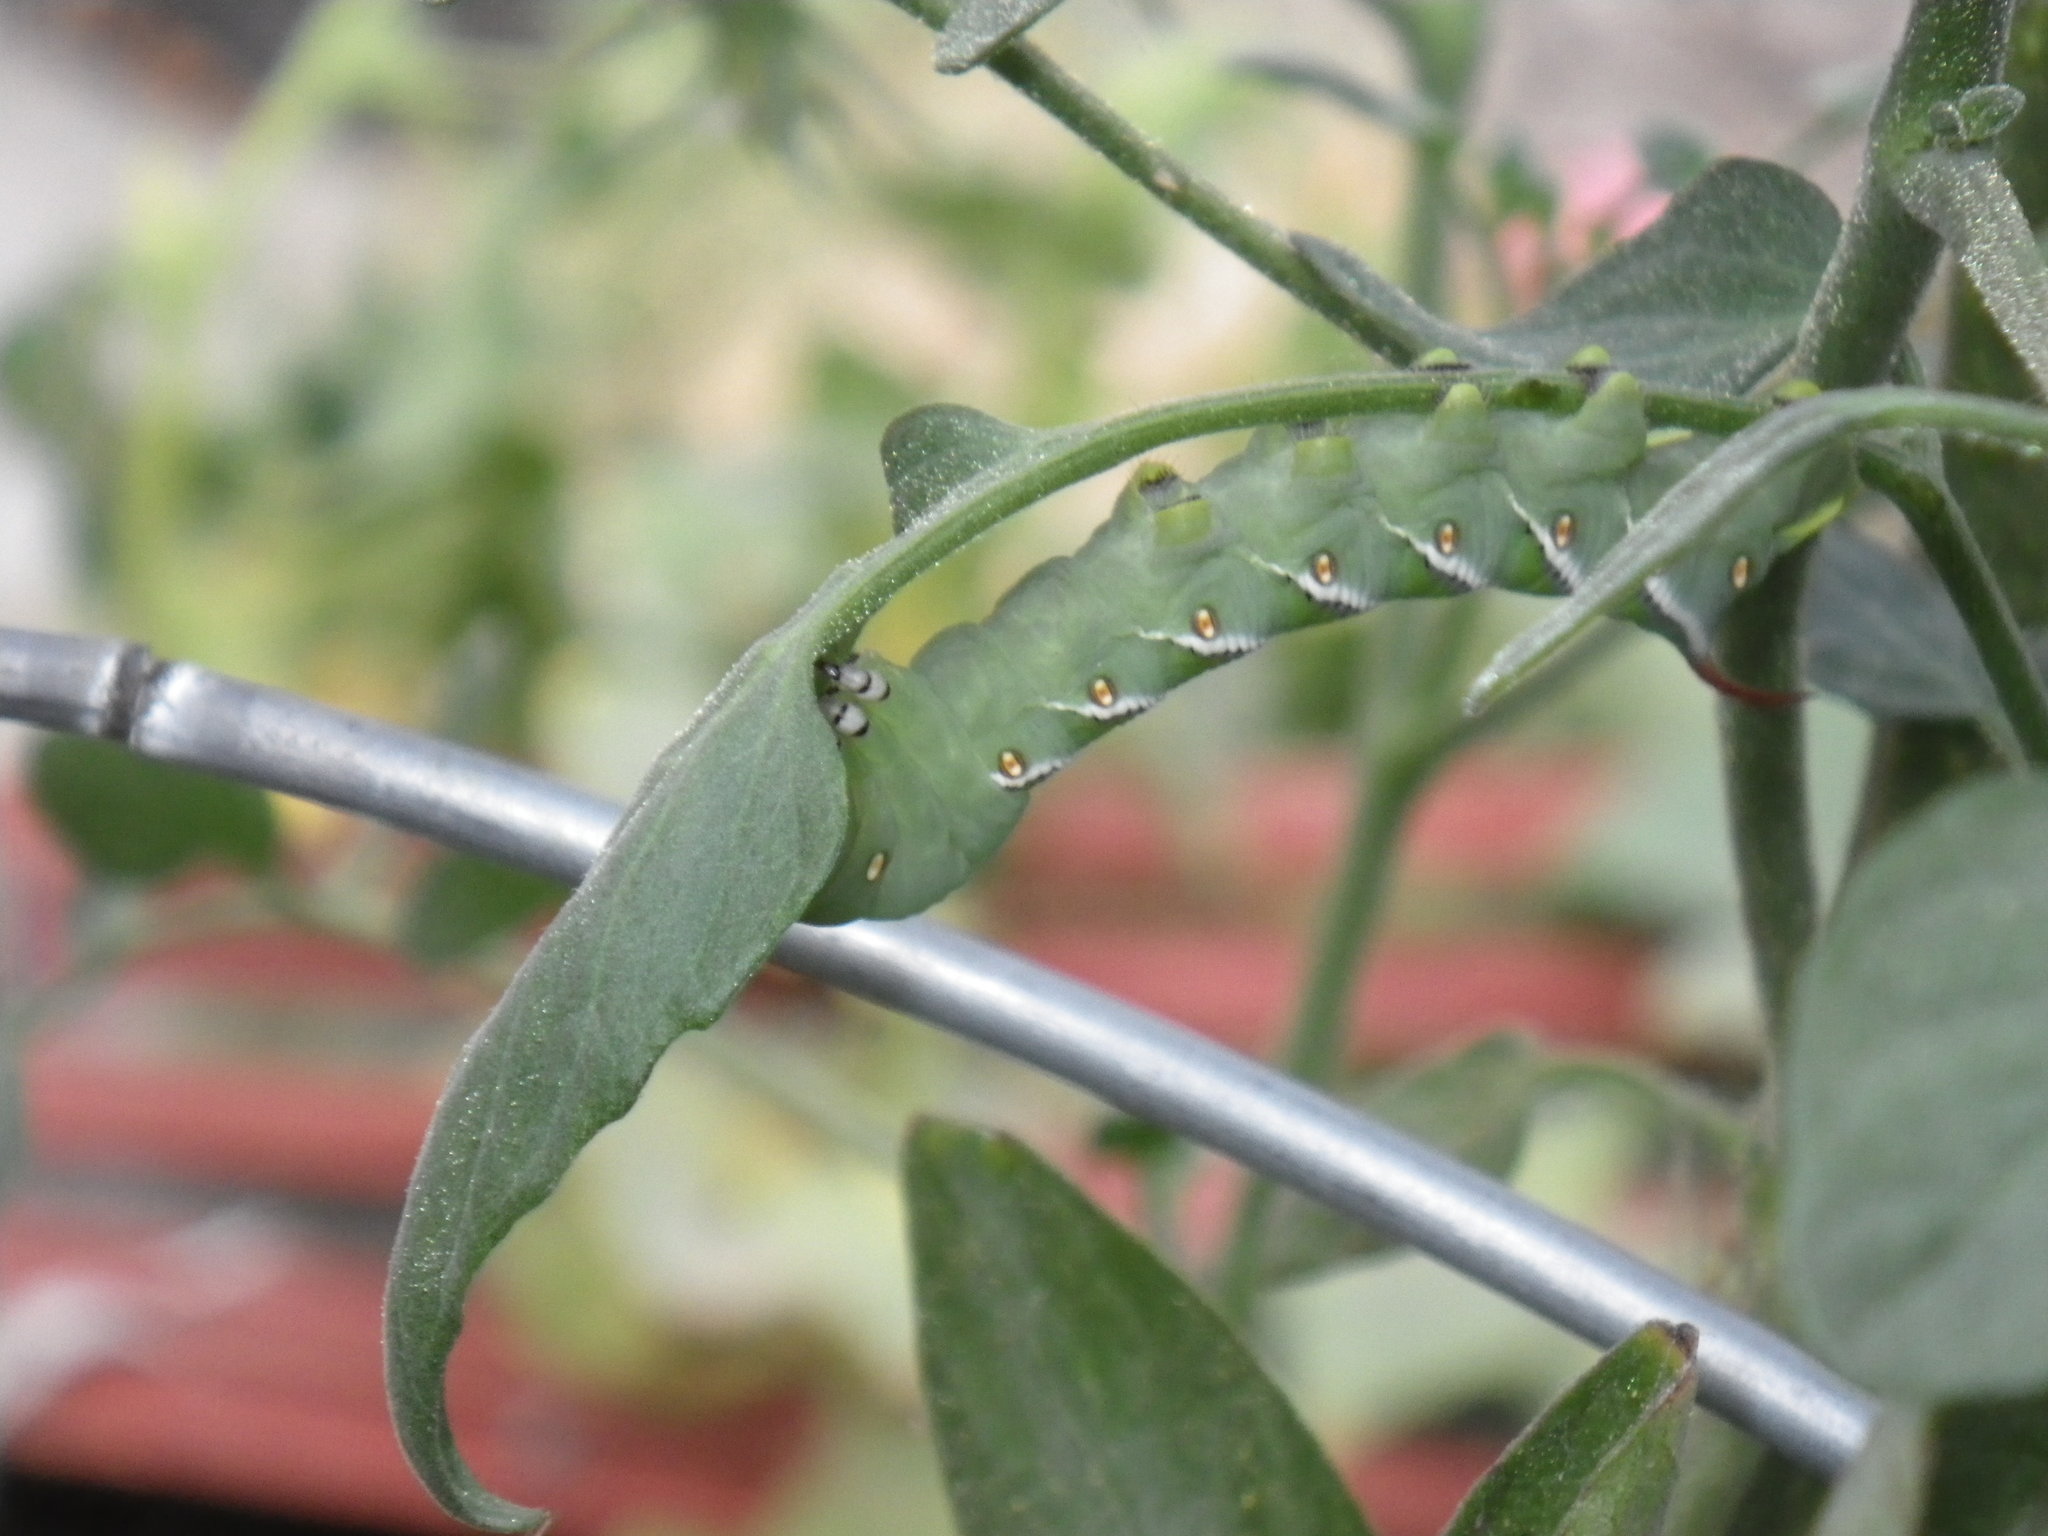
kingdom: Animalia
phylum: Arthropoda
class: Insecta
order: Lepidoptera
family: Sphingidae
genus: Manduca
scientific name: Manduca sexta
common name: Carolina sphinx
